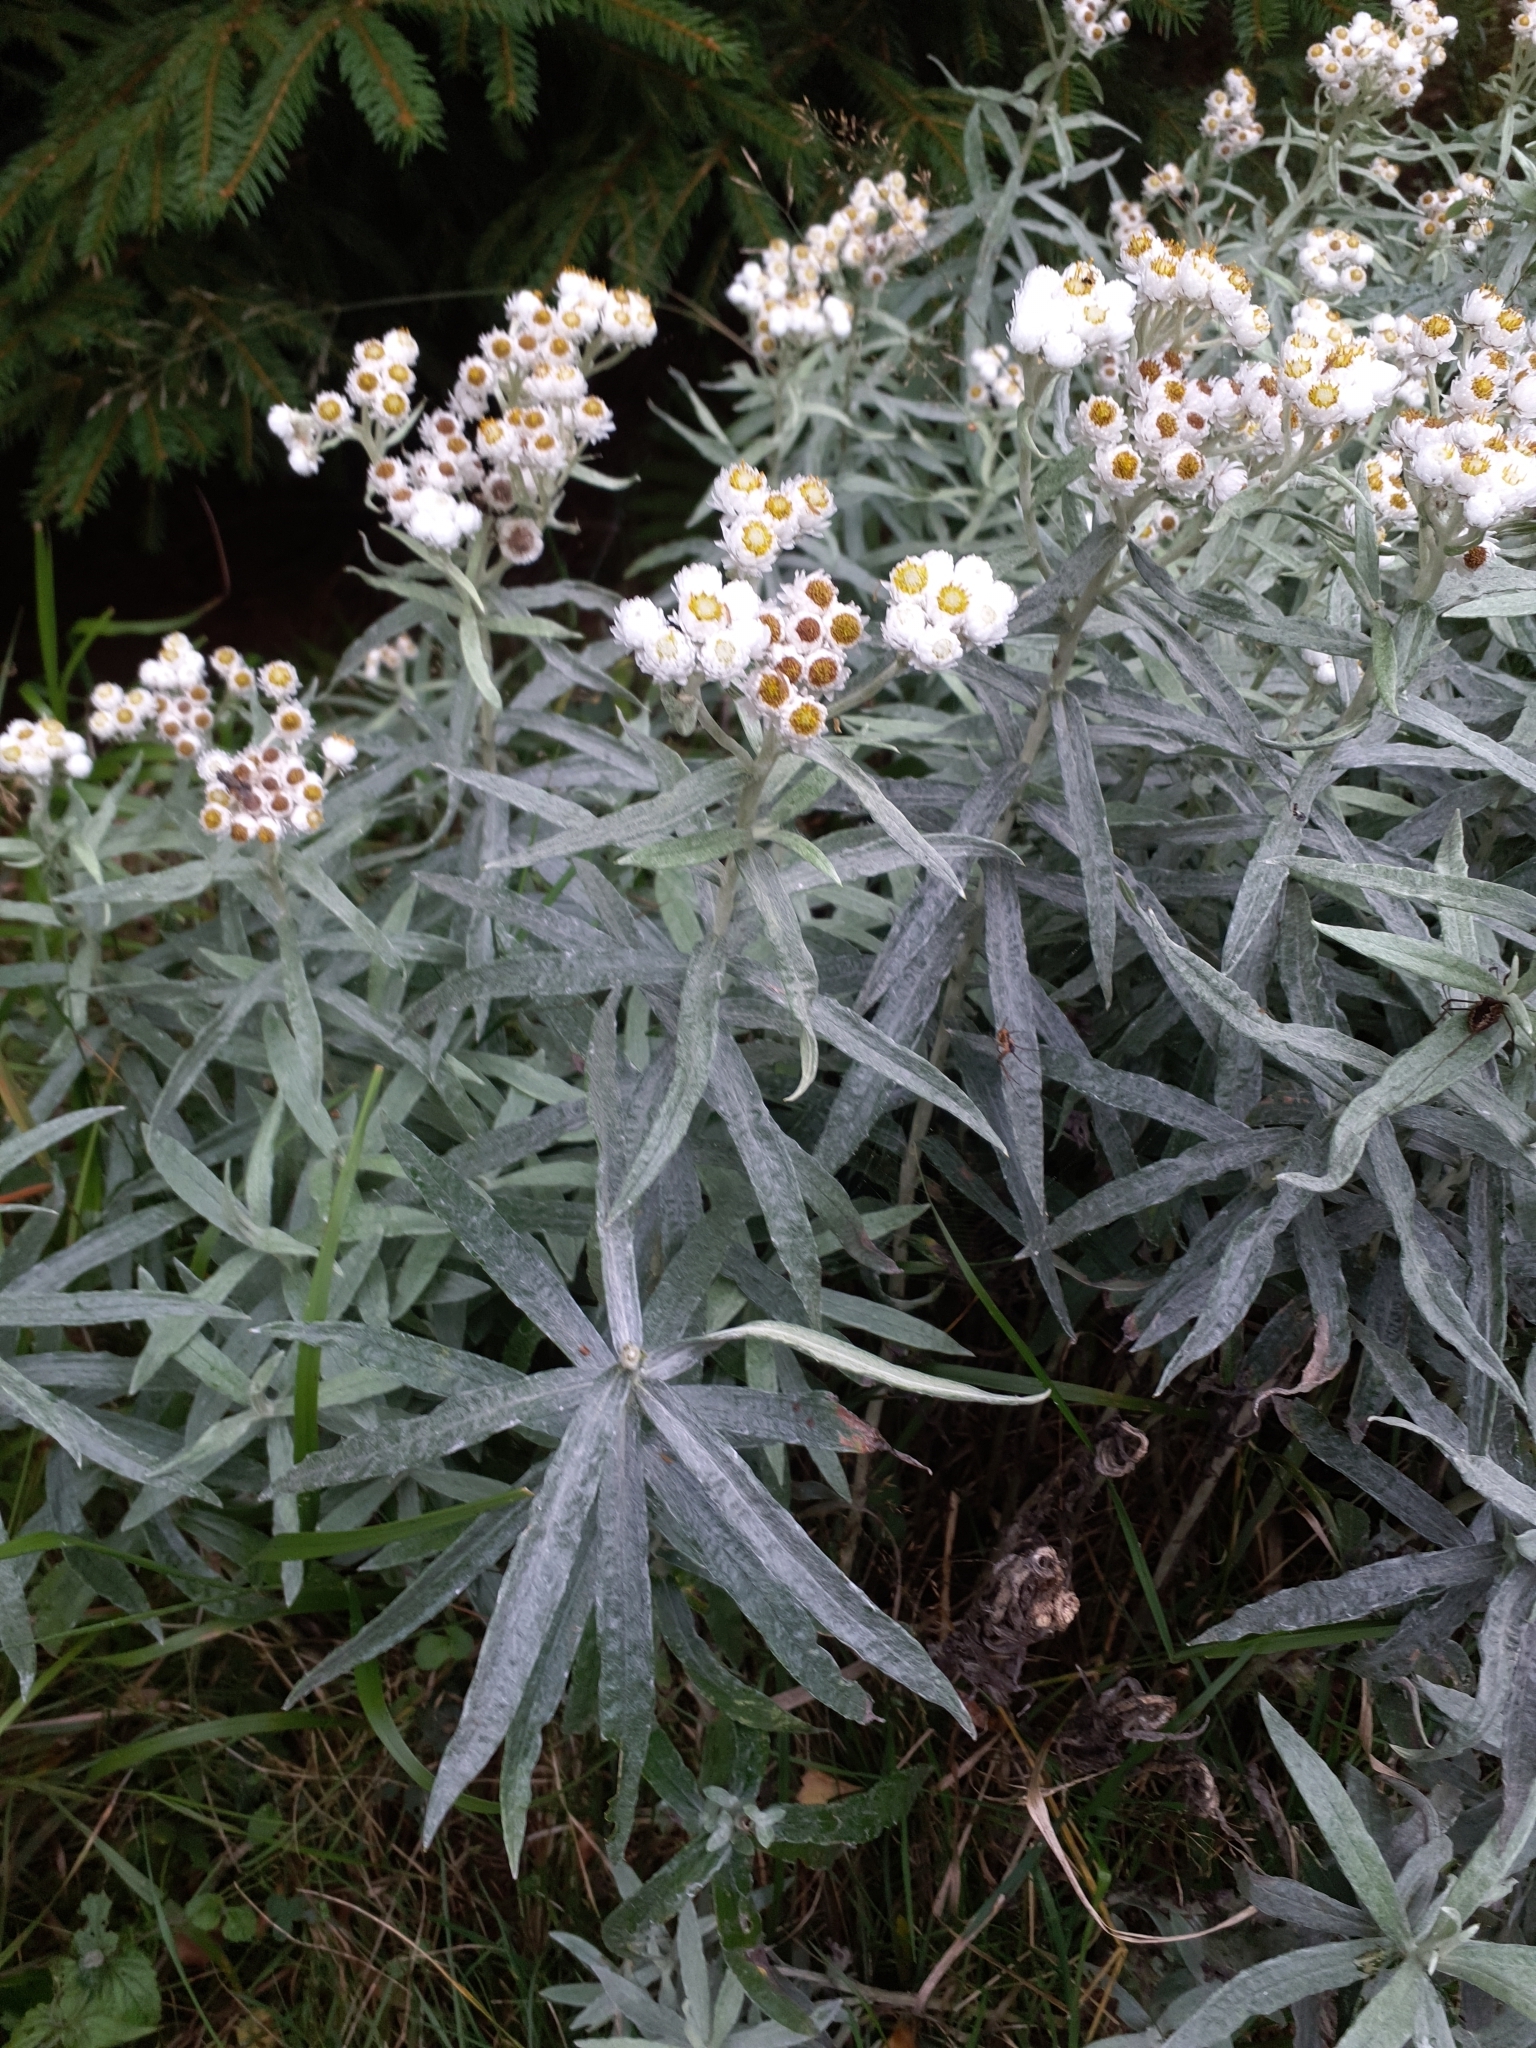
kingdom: Plantae
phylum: Tracheophyta
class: Magnoliopsida
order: Asterales
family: Asteraceae
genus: Anaphalis
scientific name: Anaphalis margaritacea
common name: Pearly everlasting
